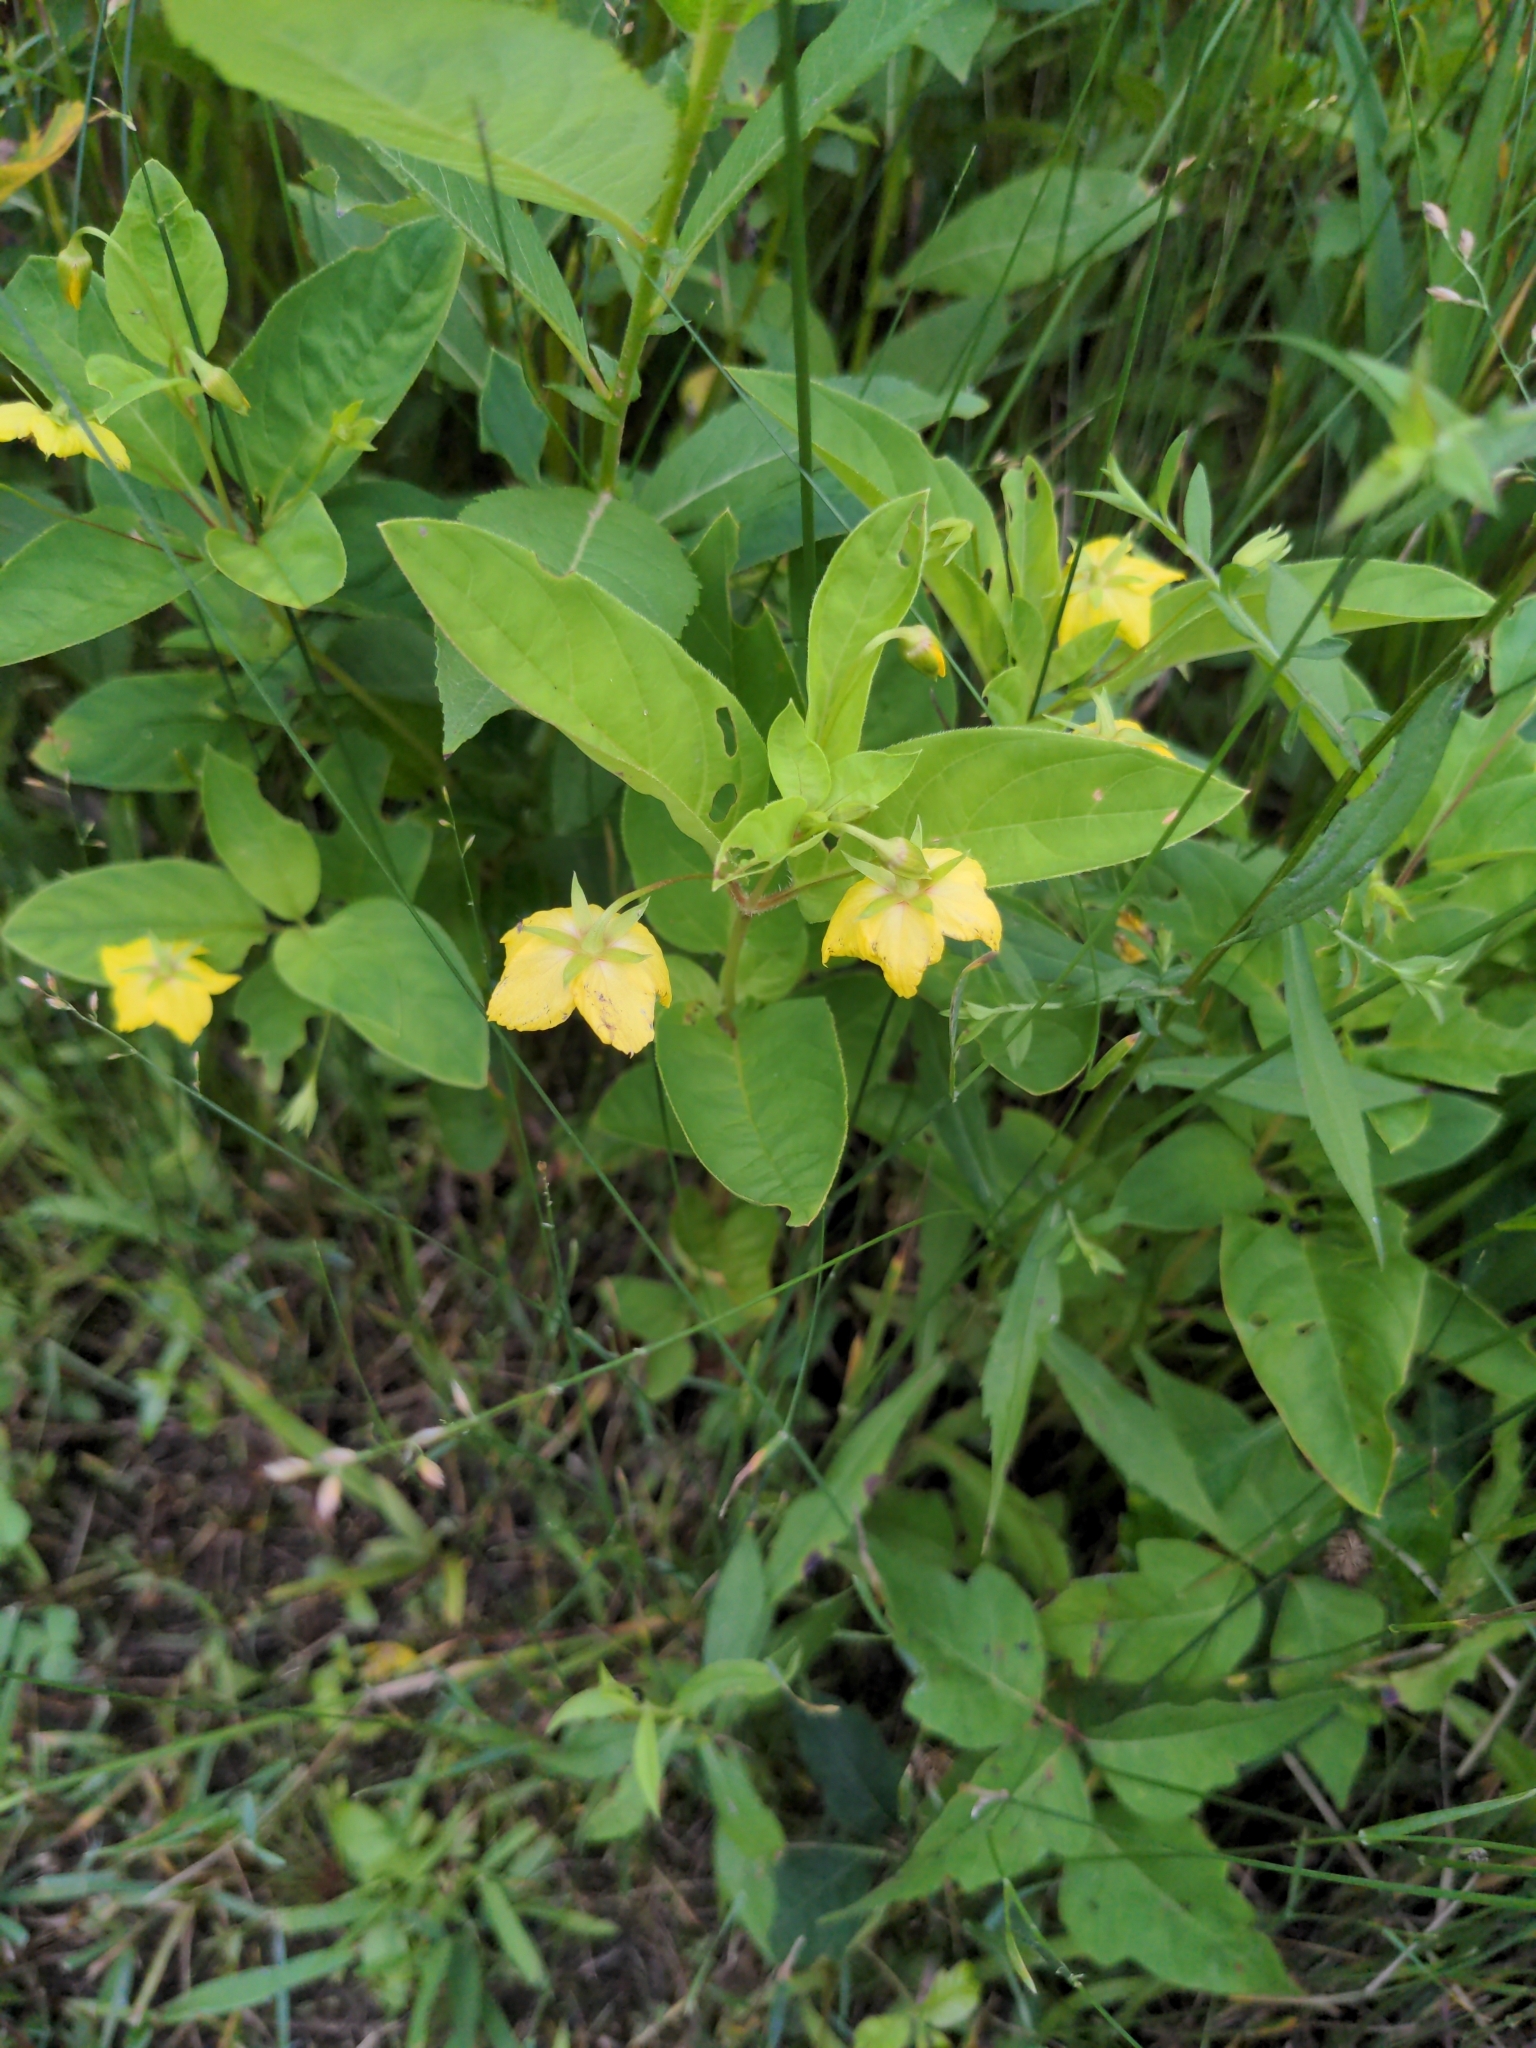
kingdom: Plantae
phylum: Tracheophyta
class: Magnoliopsida
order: Ericales
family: Primulaceae
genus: Lysimachia
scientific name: Lysimachia ciliata
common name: Fringed loosestrife
